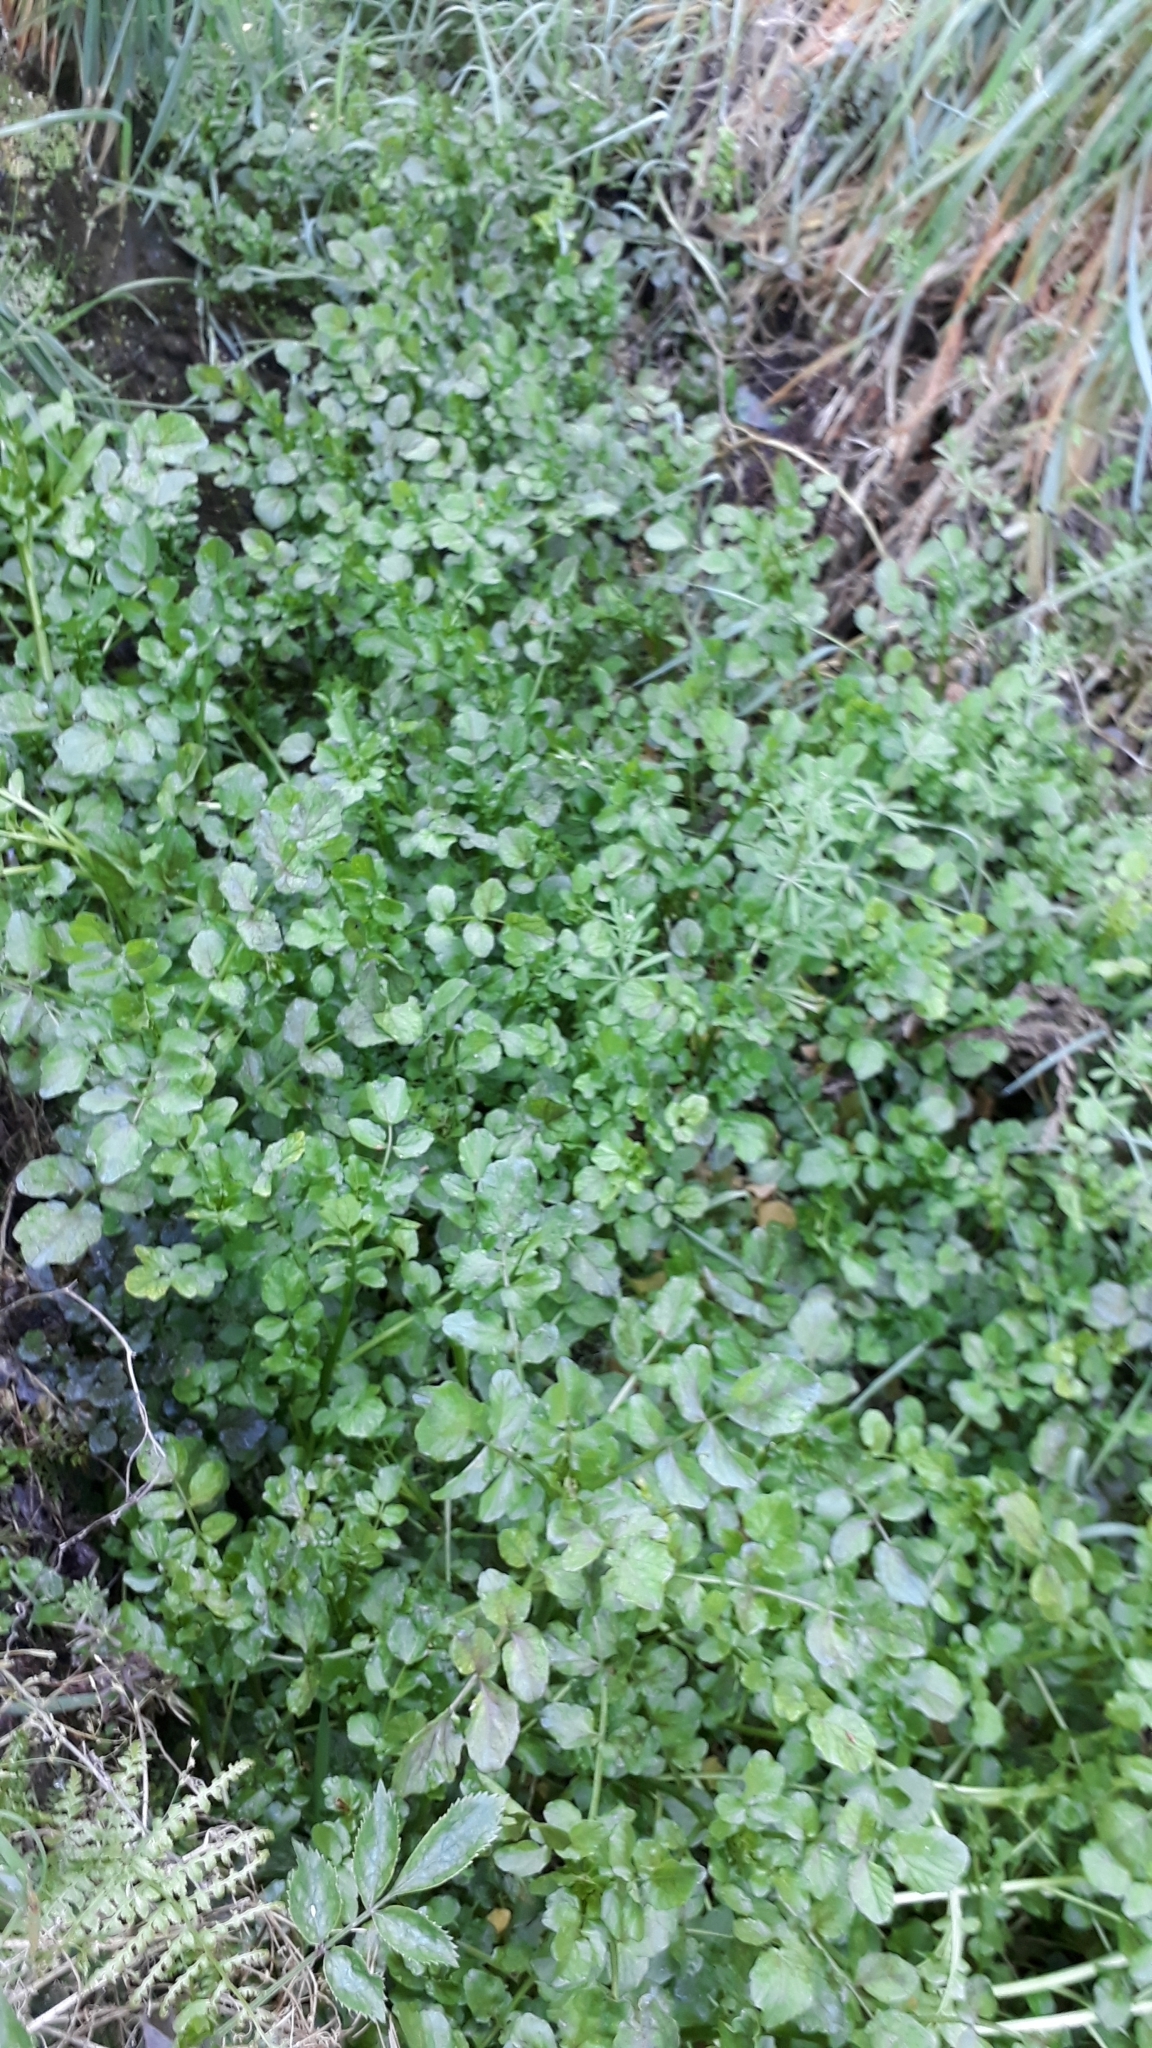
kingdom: Plantae
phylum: Tracheophyta
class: Magnoliopsida
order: Brassicales
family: Brassicaceae
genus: Nasturtium
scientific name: Nasturtium officinale
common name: Watercress
